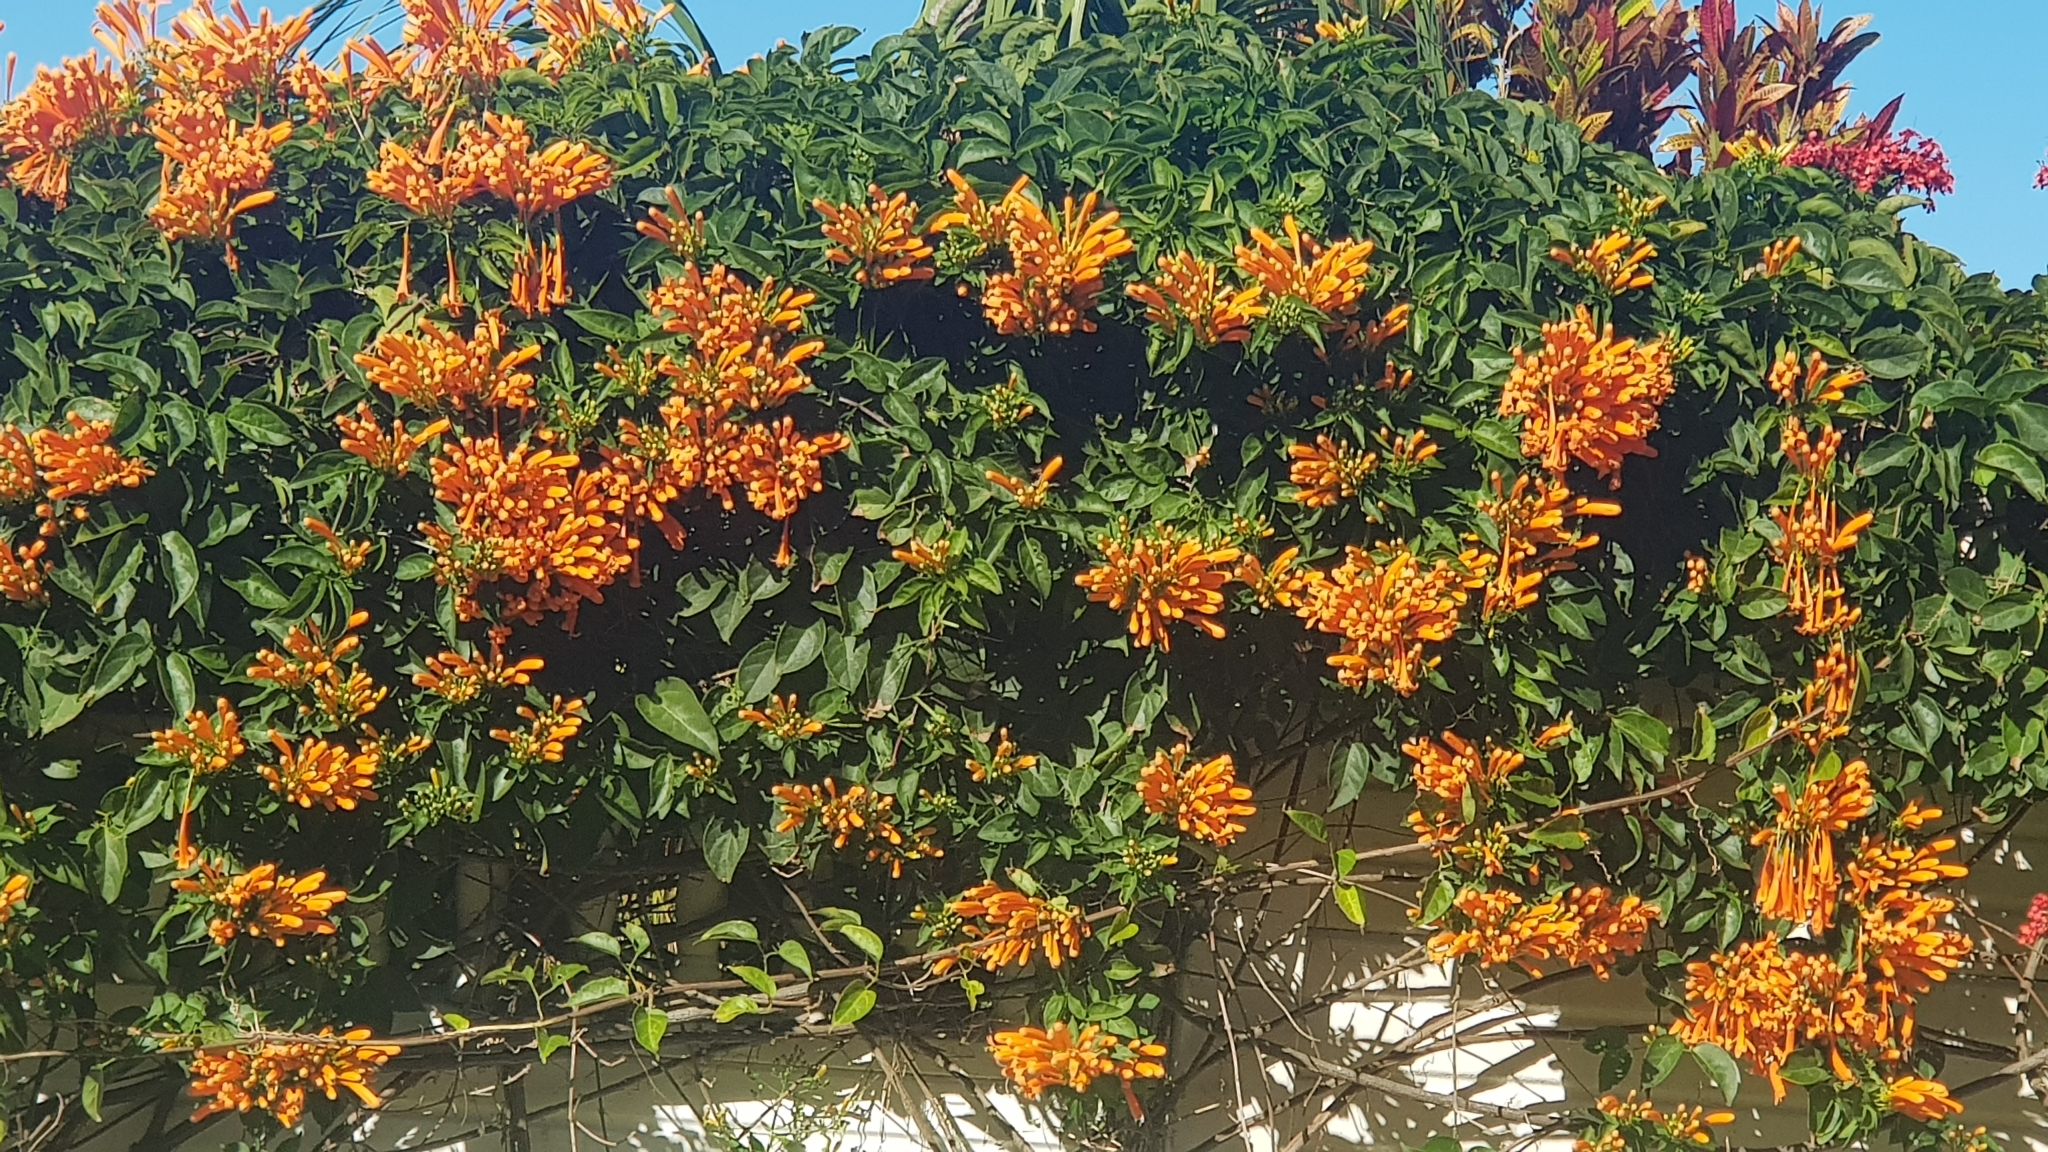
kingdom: Plantae
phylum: Tracheophyta
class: Magnoliopsida
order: Lamiales
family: Bignoniaceae
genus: Pyrostegia
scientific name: Pyrostegia venusta
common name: Flamevine
